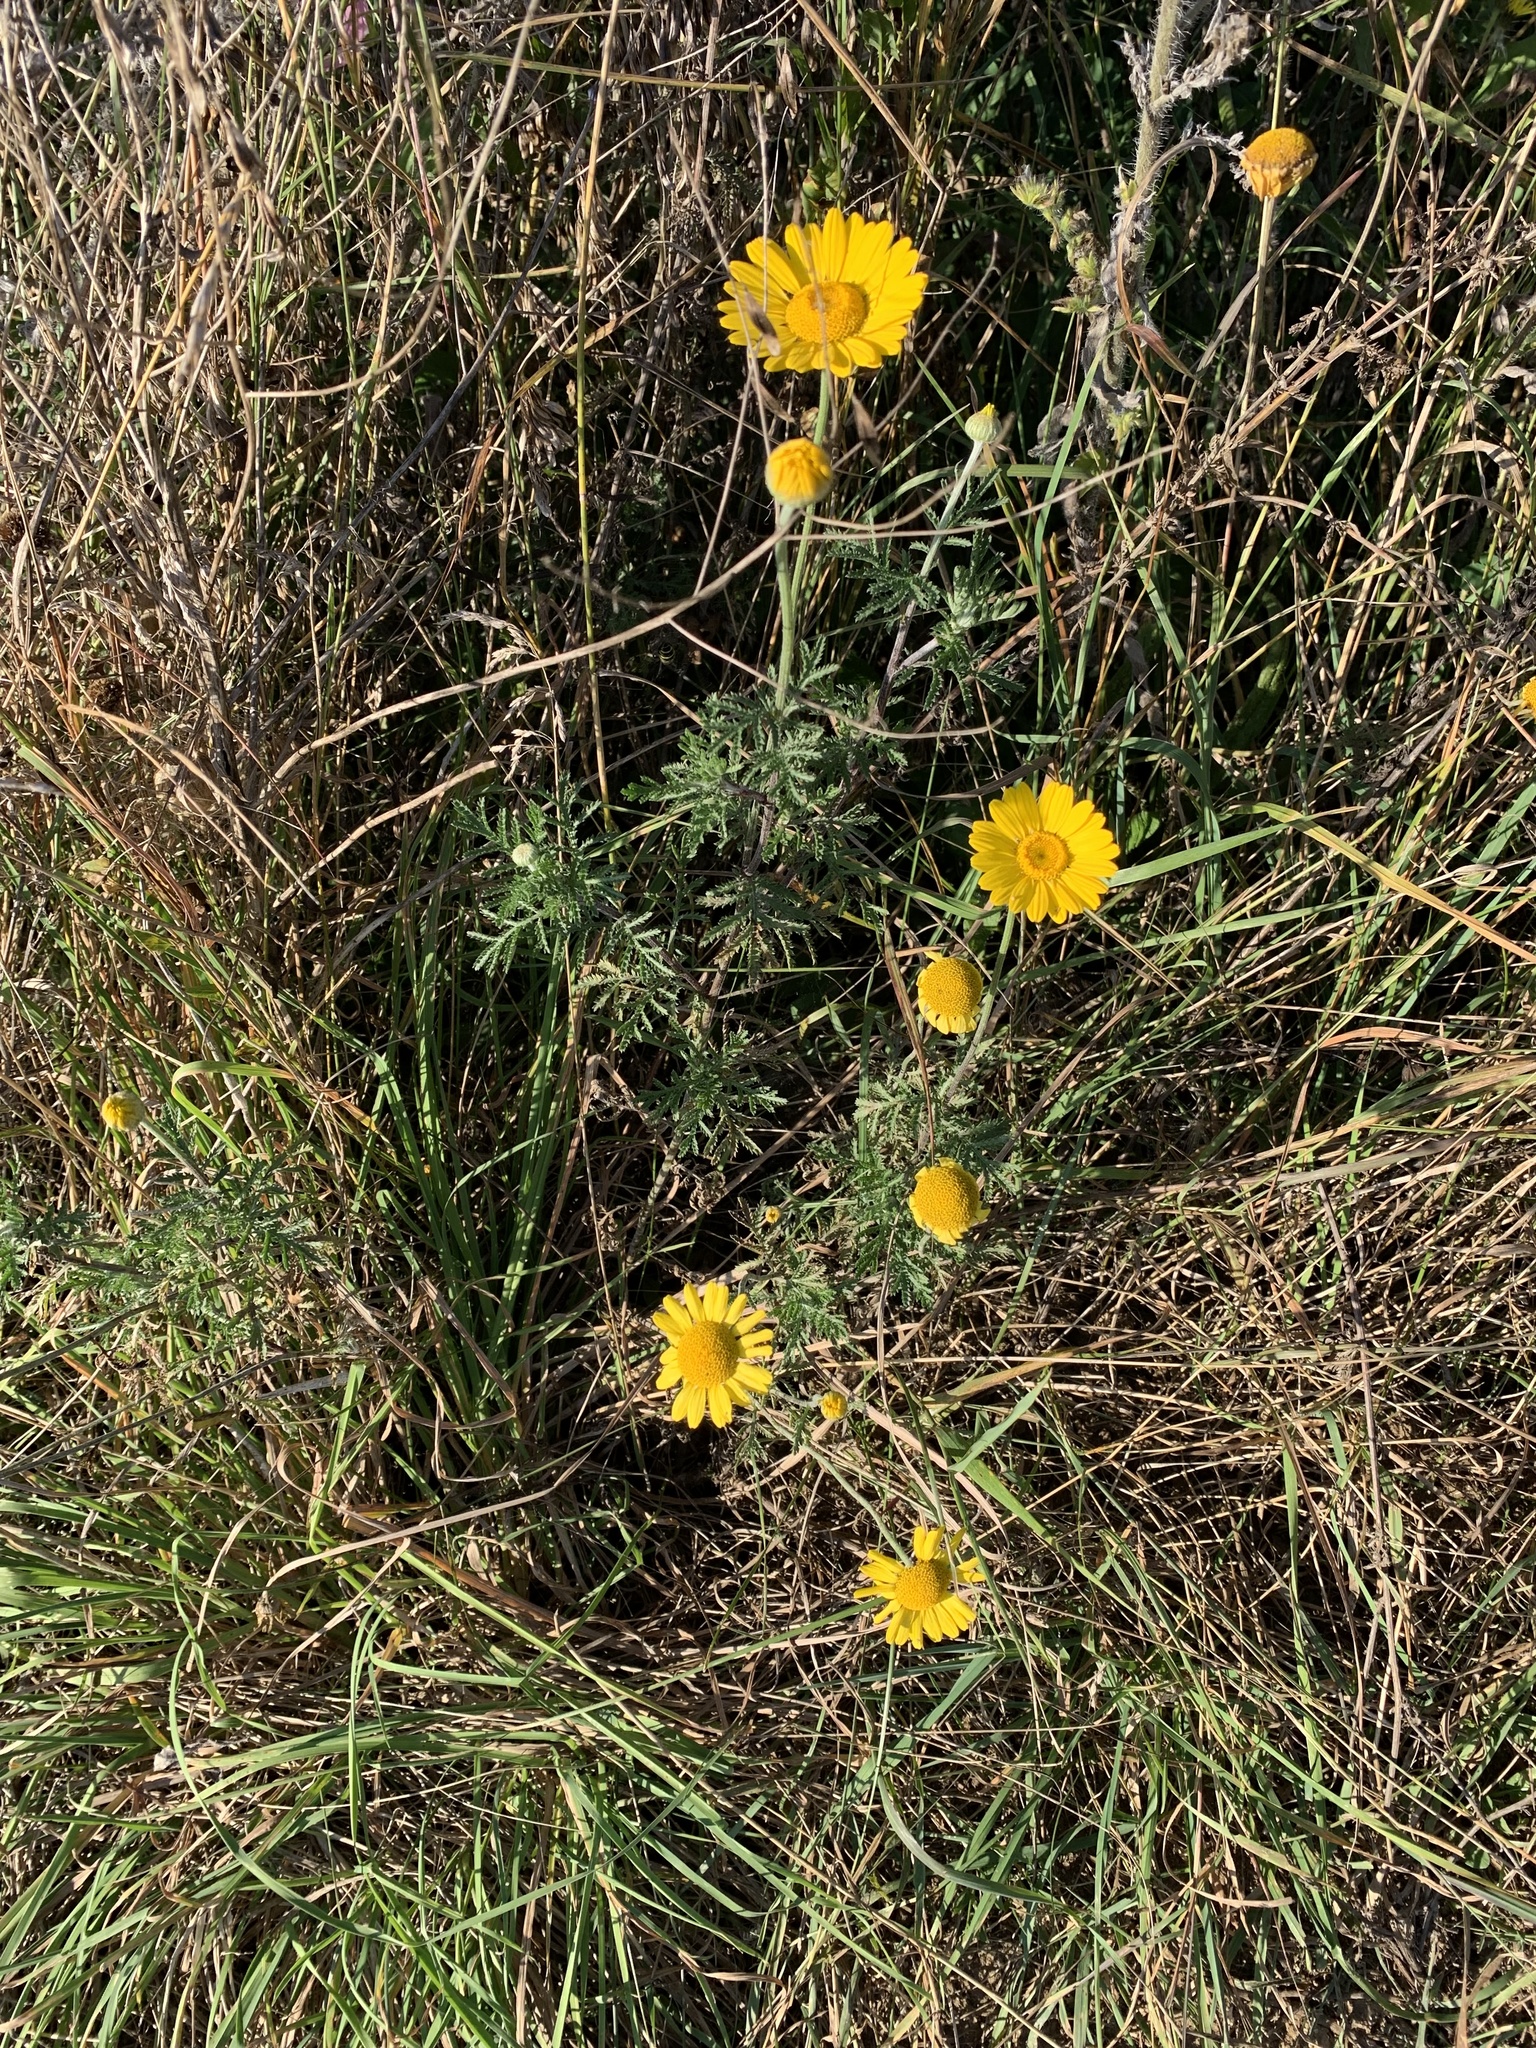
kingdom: Plantae
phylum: Tracheophyta
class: Magnoliopsida
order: Asterales
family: Asteraceae
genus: Cota
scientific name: Cota tinctoria
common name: Golden chamomile
